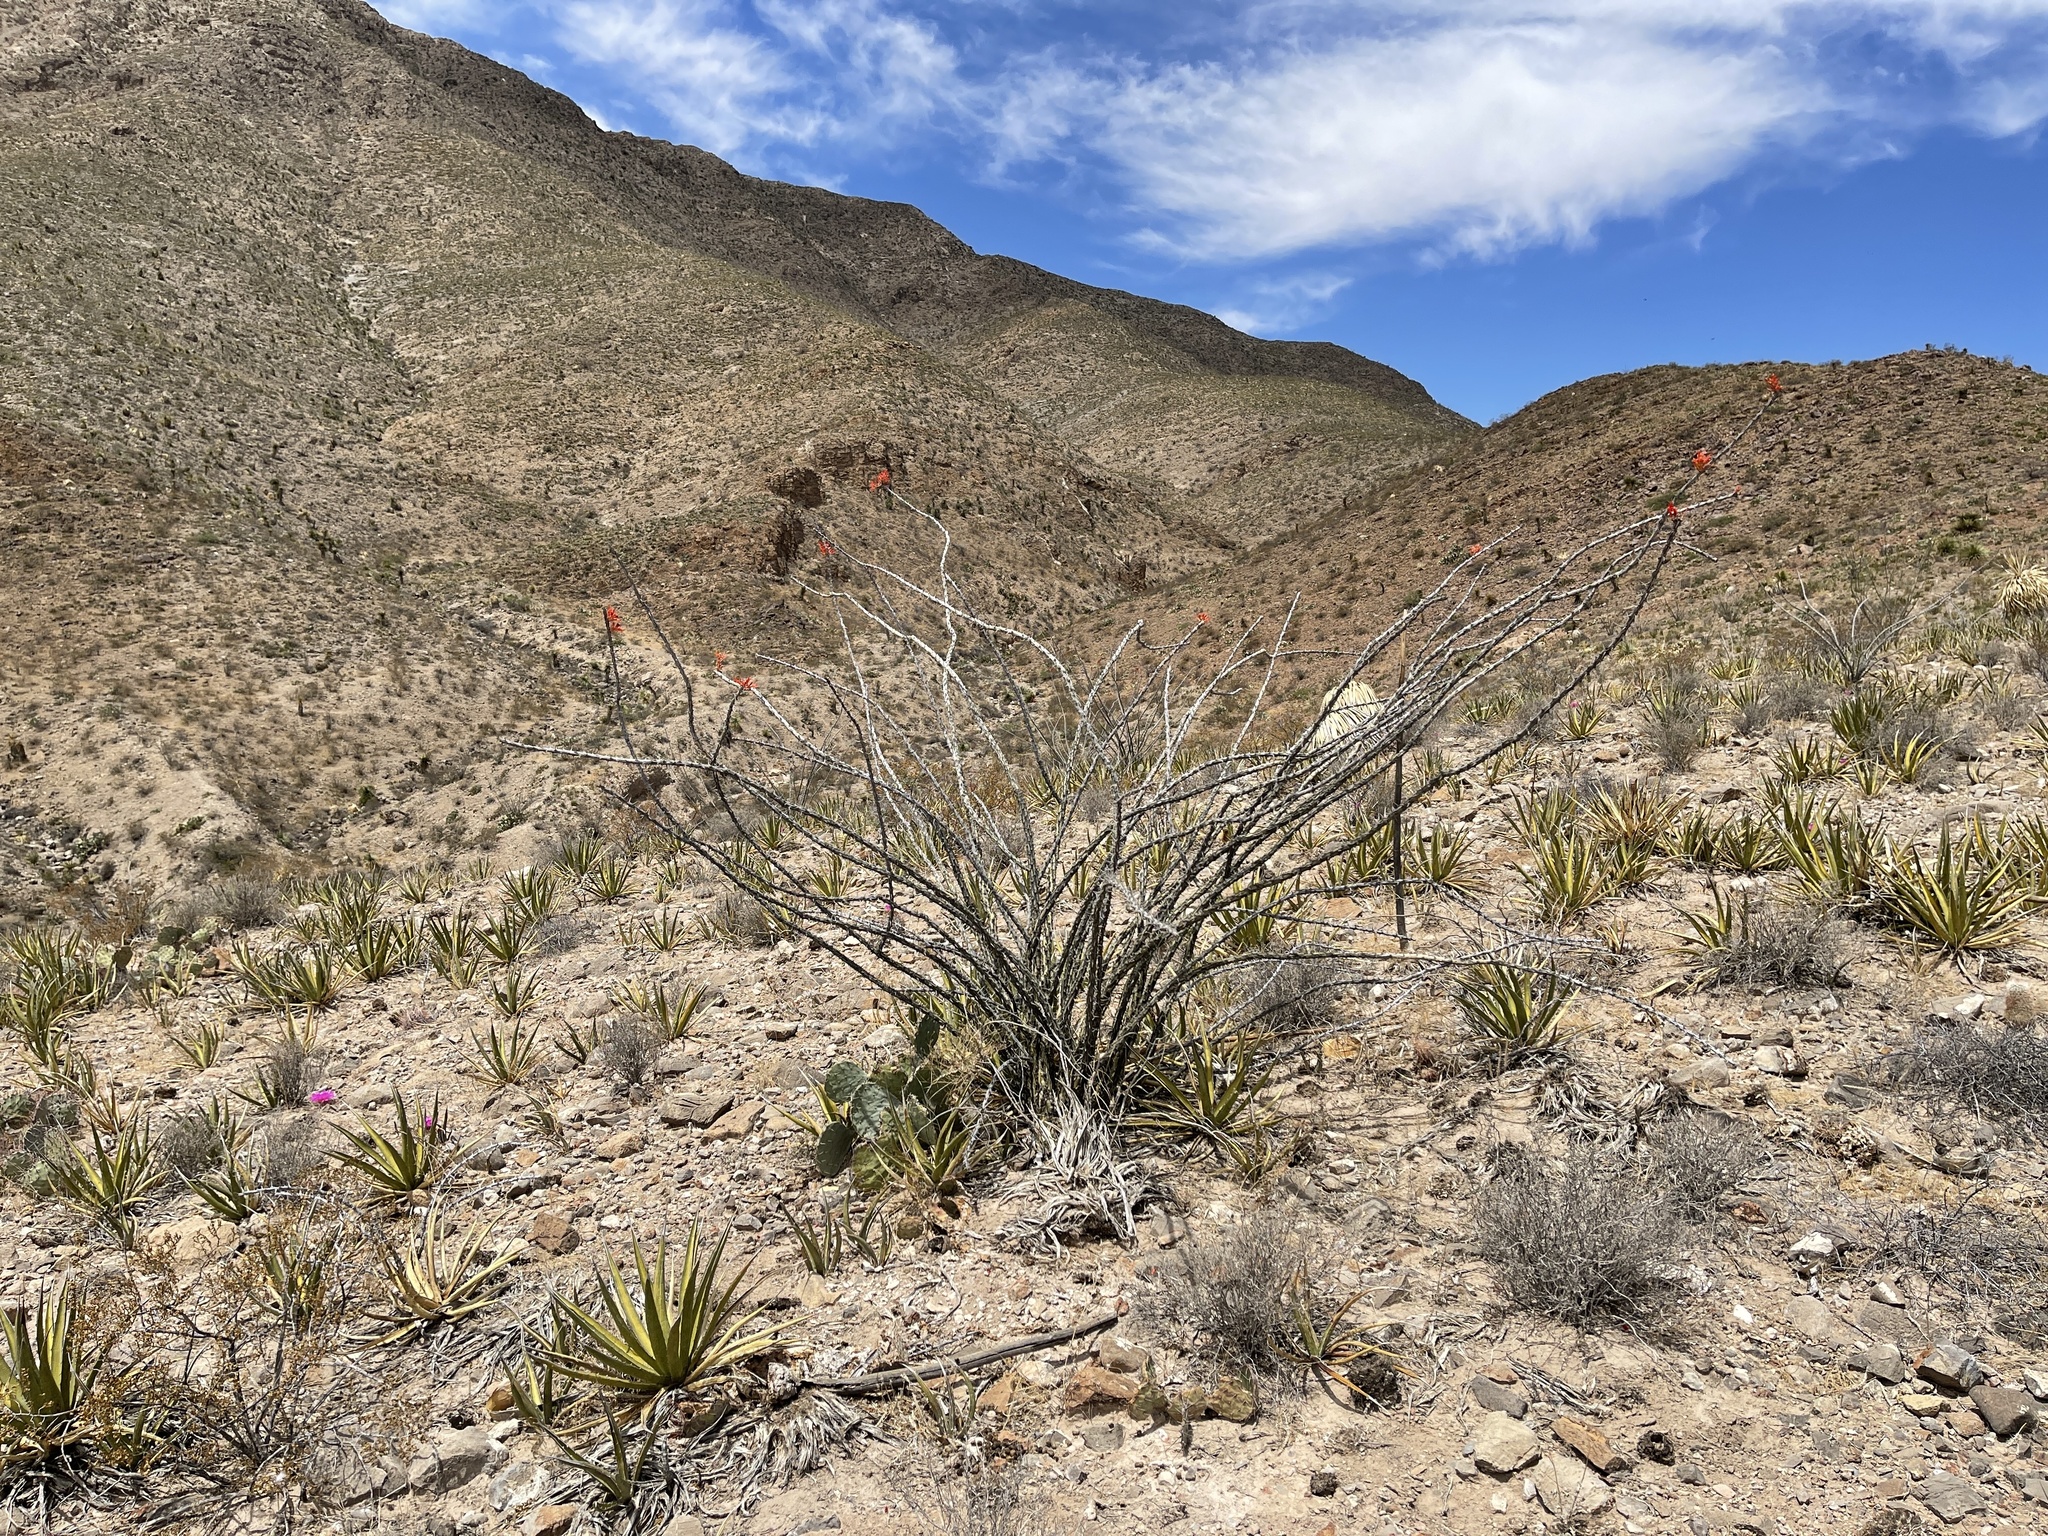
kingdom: Plantae
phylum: Tracheophyta
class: Magnoliopsida
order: Ericales
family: Fouquieriaceae
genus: Fouquieria
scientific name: Fouquieria splendens
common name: Vine-cactus
